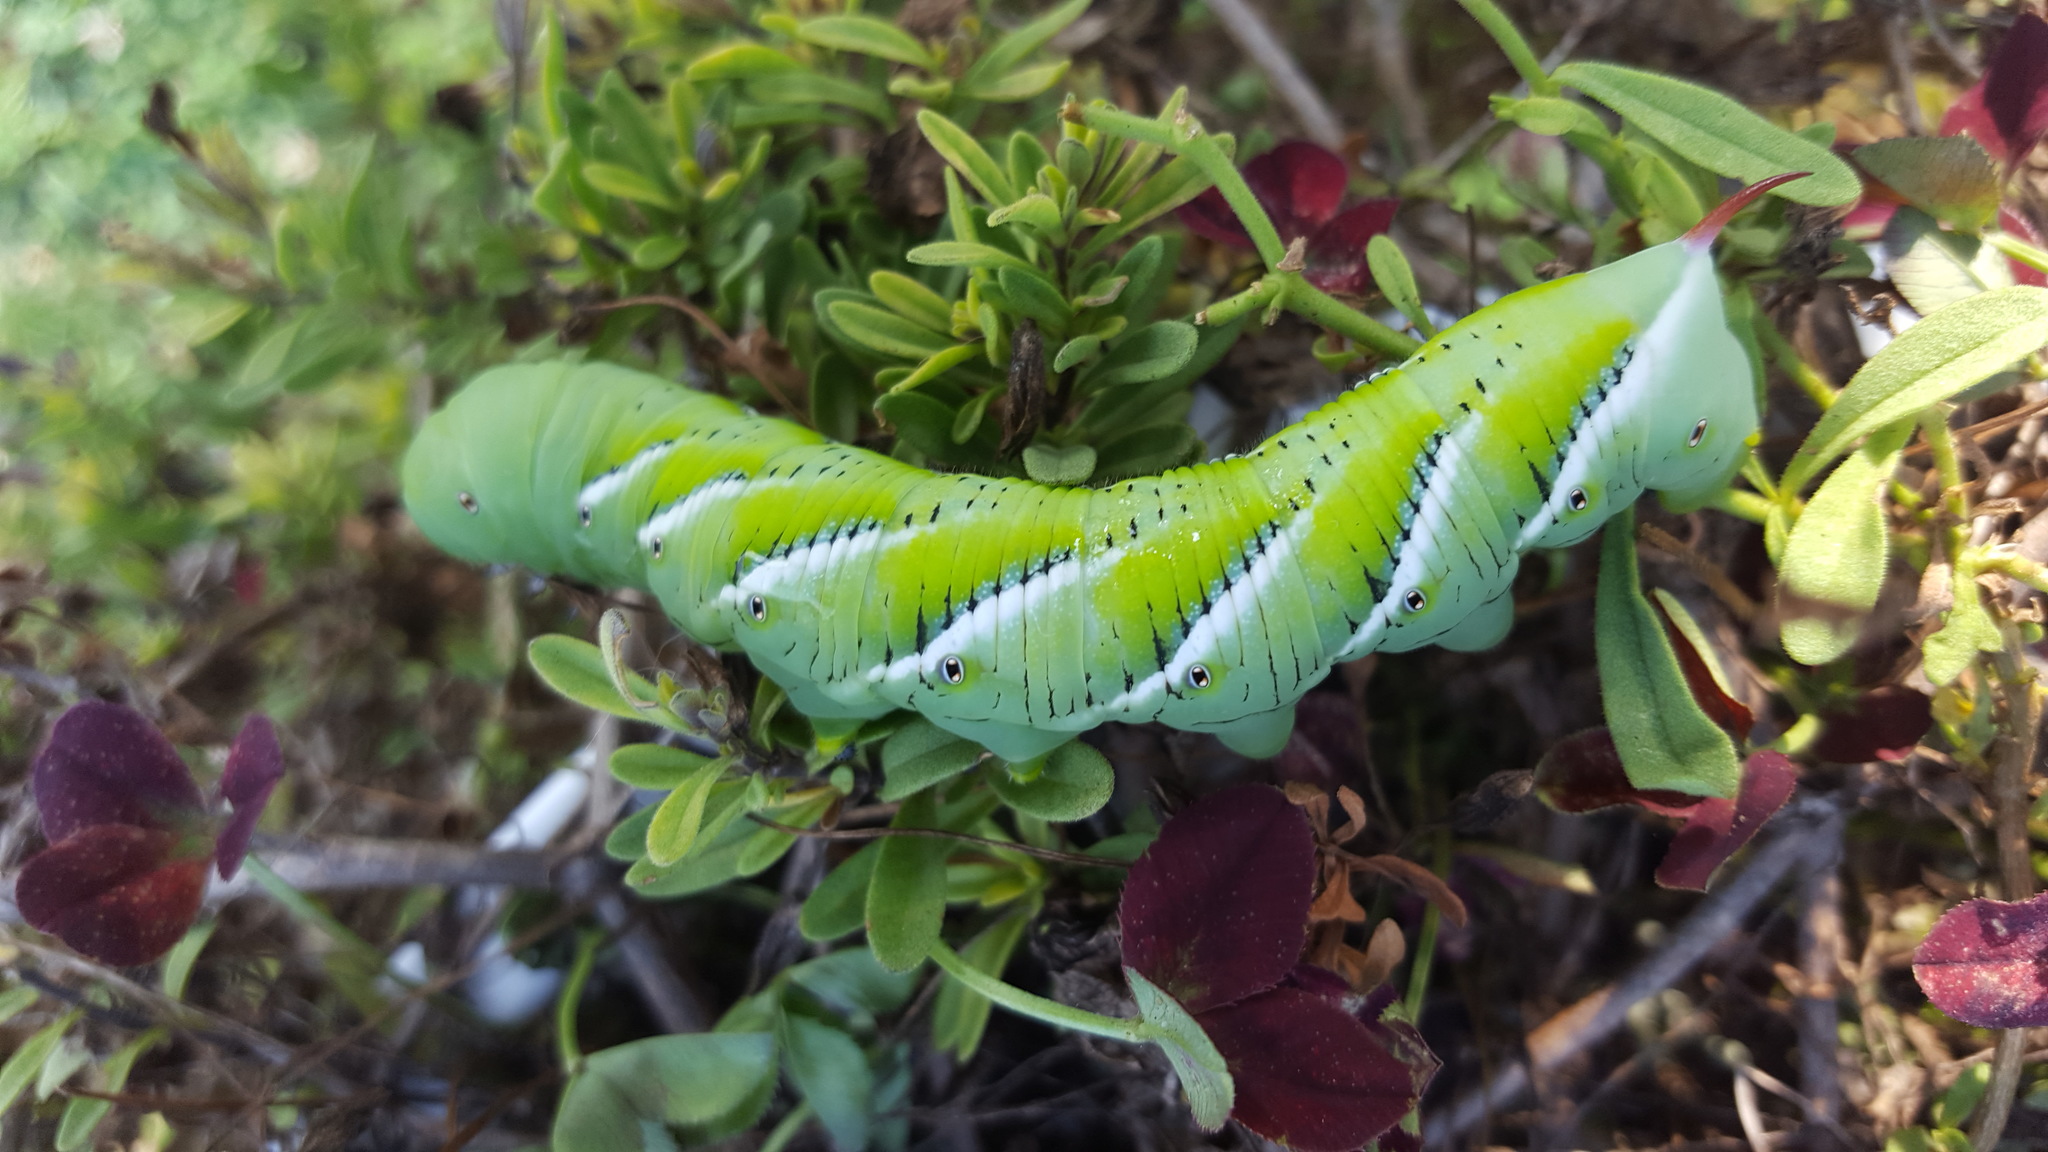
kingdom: Animalia
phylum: Arthropoda
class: Insecta
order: Lepidoptera
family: Sphingidae
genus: Manduca
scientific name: Manduca sexta
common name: Carolina sphinx
